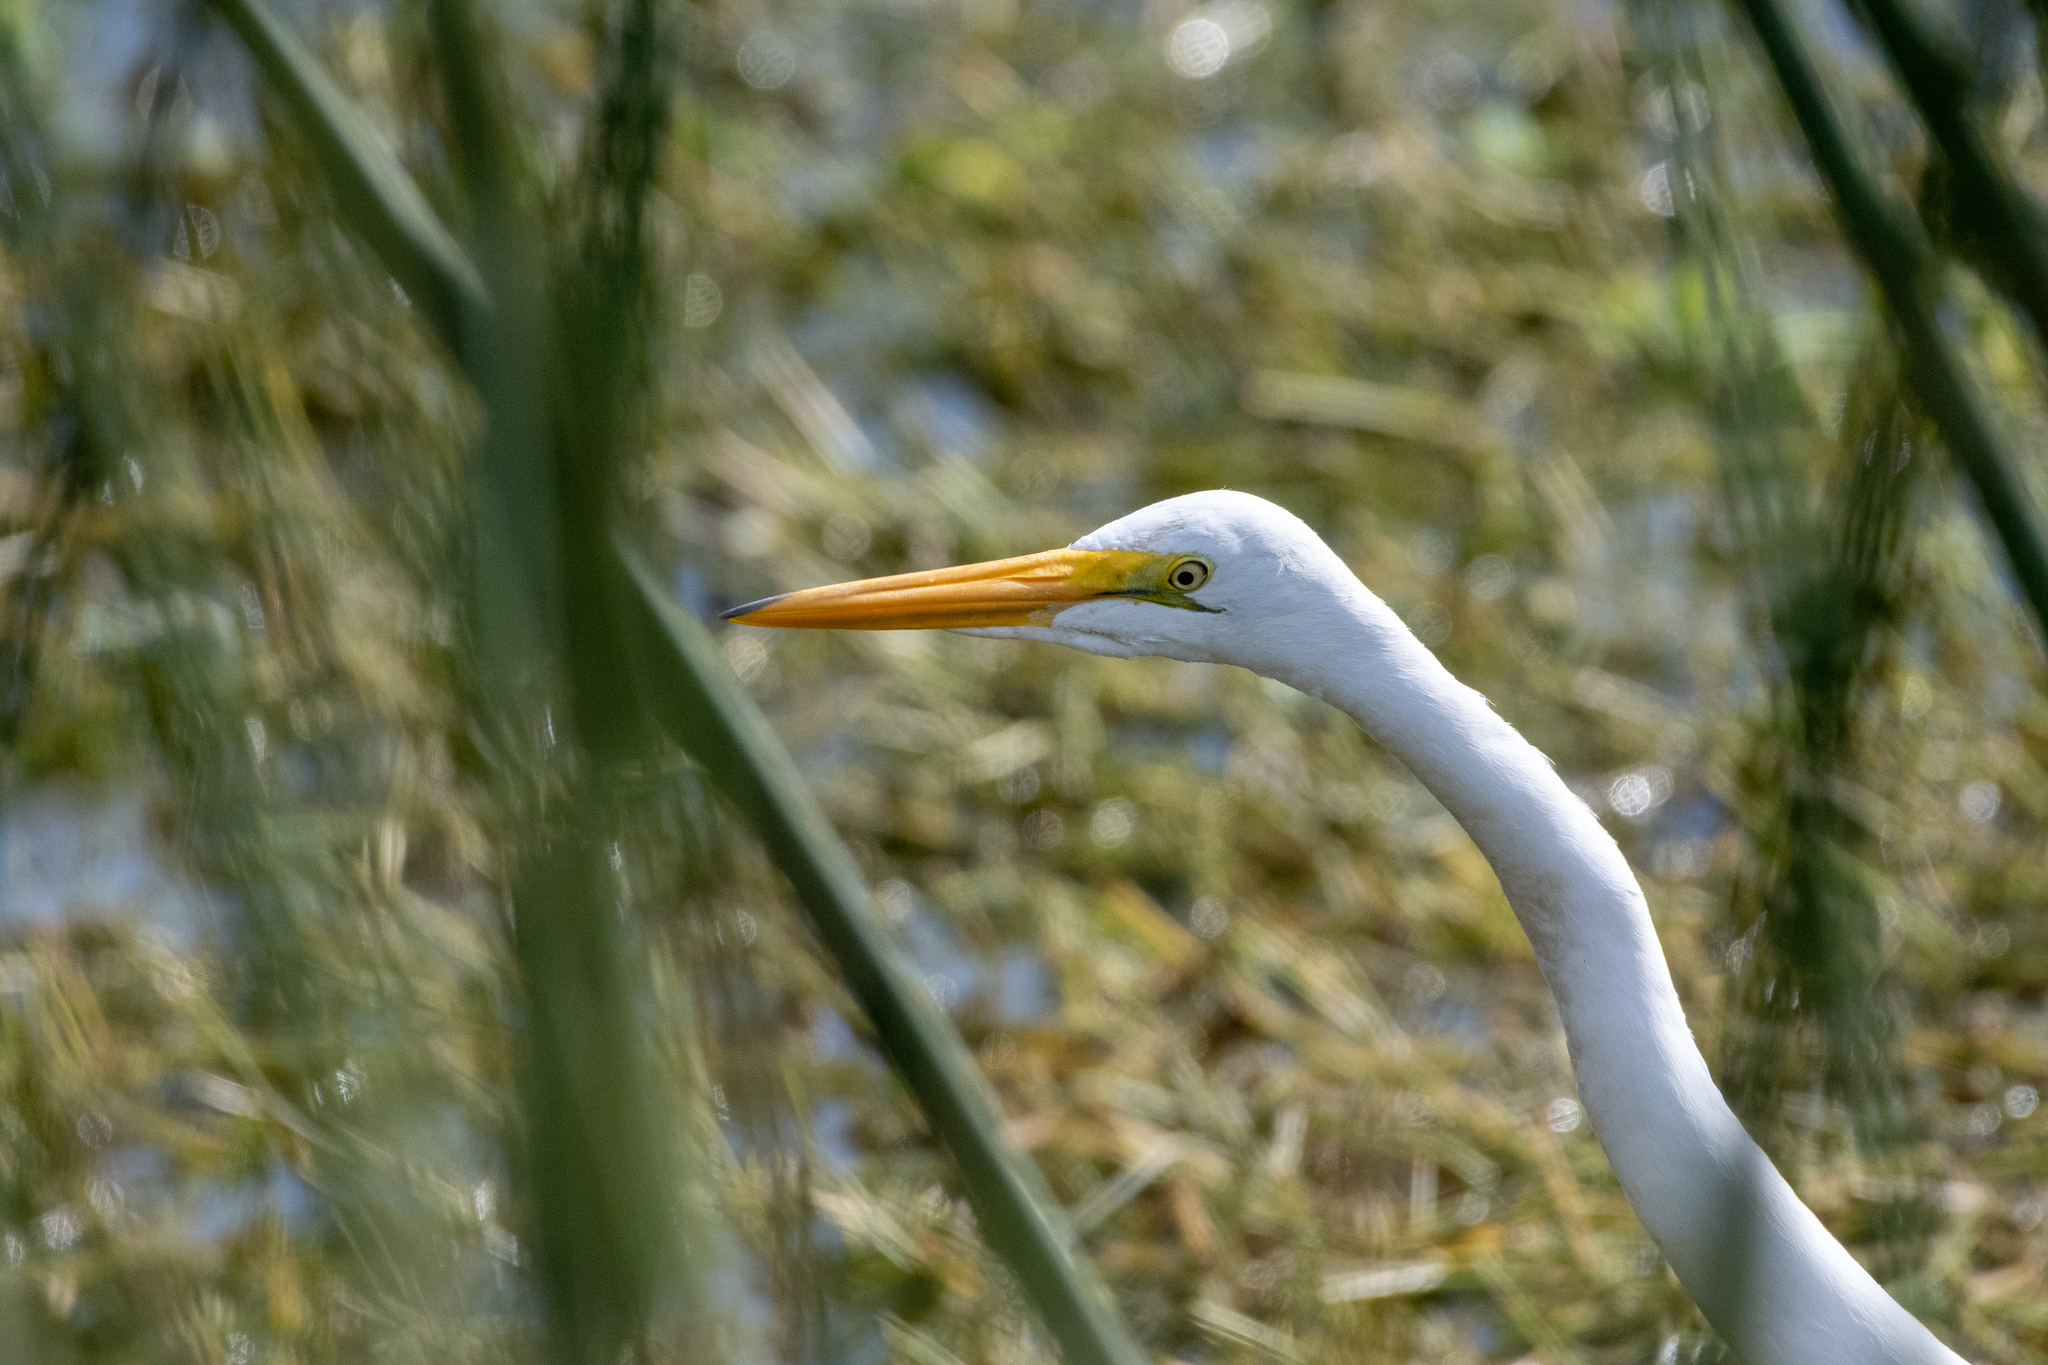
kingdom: Animalia
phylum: Chordata
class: Aves
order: Pelecaniformes
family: Ardeidae
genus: Ardea
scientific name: Ardea alba
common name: Great egret
